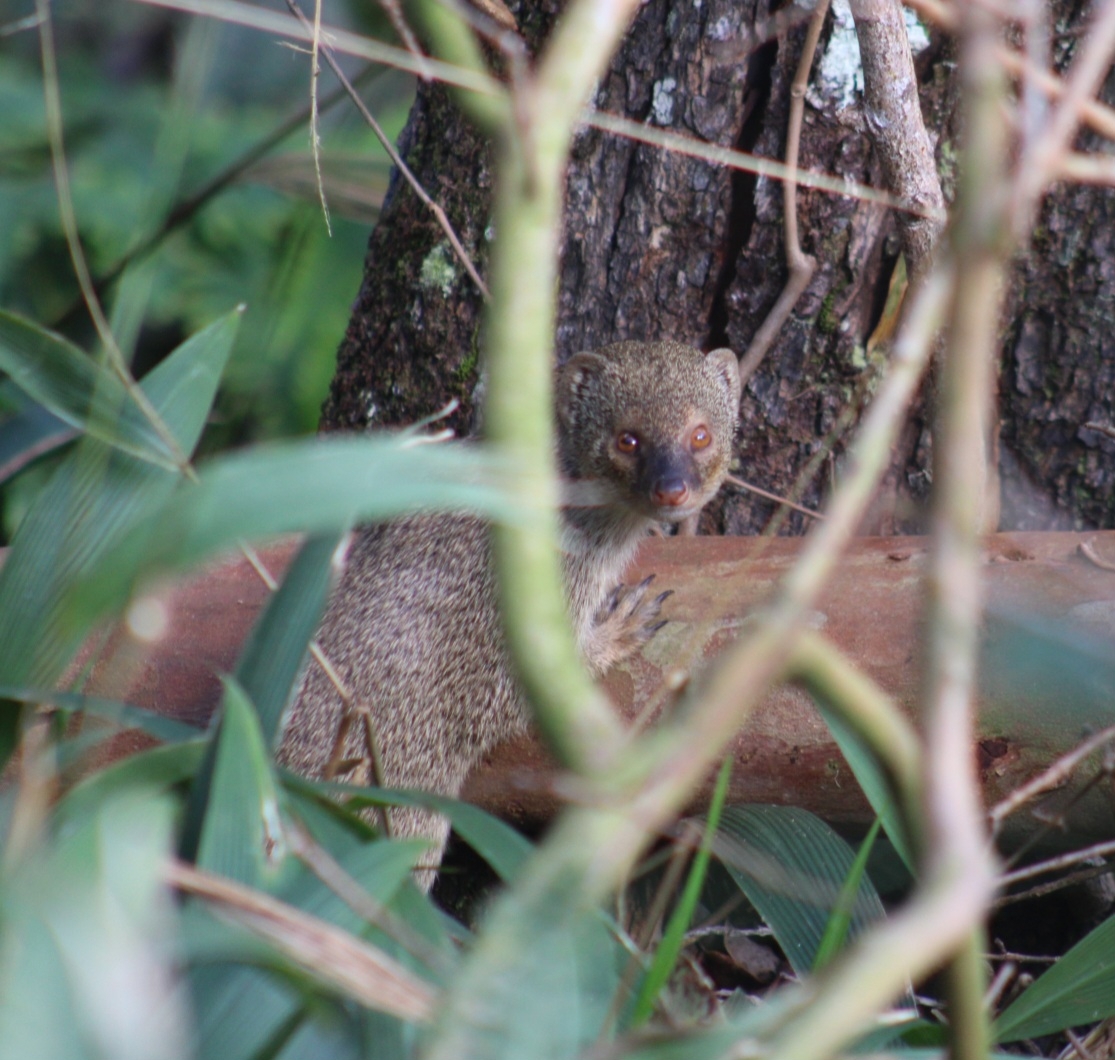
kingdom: Animalia
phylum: Chordata
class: Mammalia
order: Carnivora
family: Herpestidae
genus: Herpestes
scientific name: Herpestes javanicus
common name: Small asian mongoose
